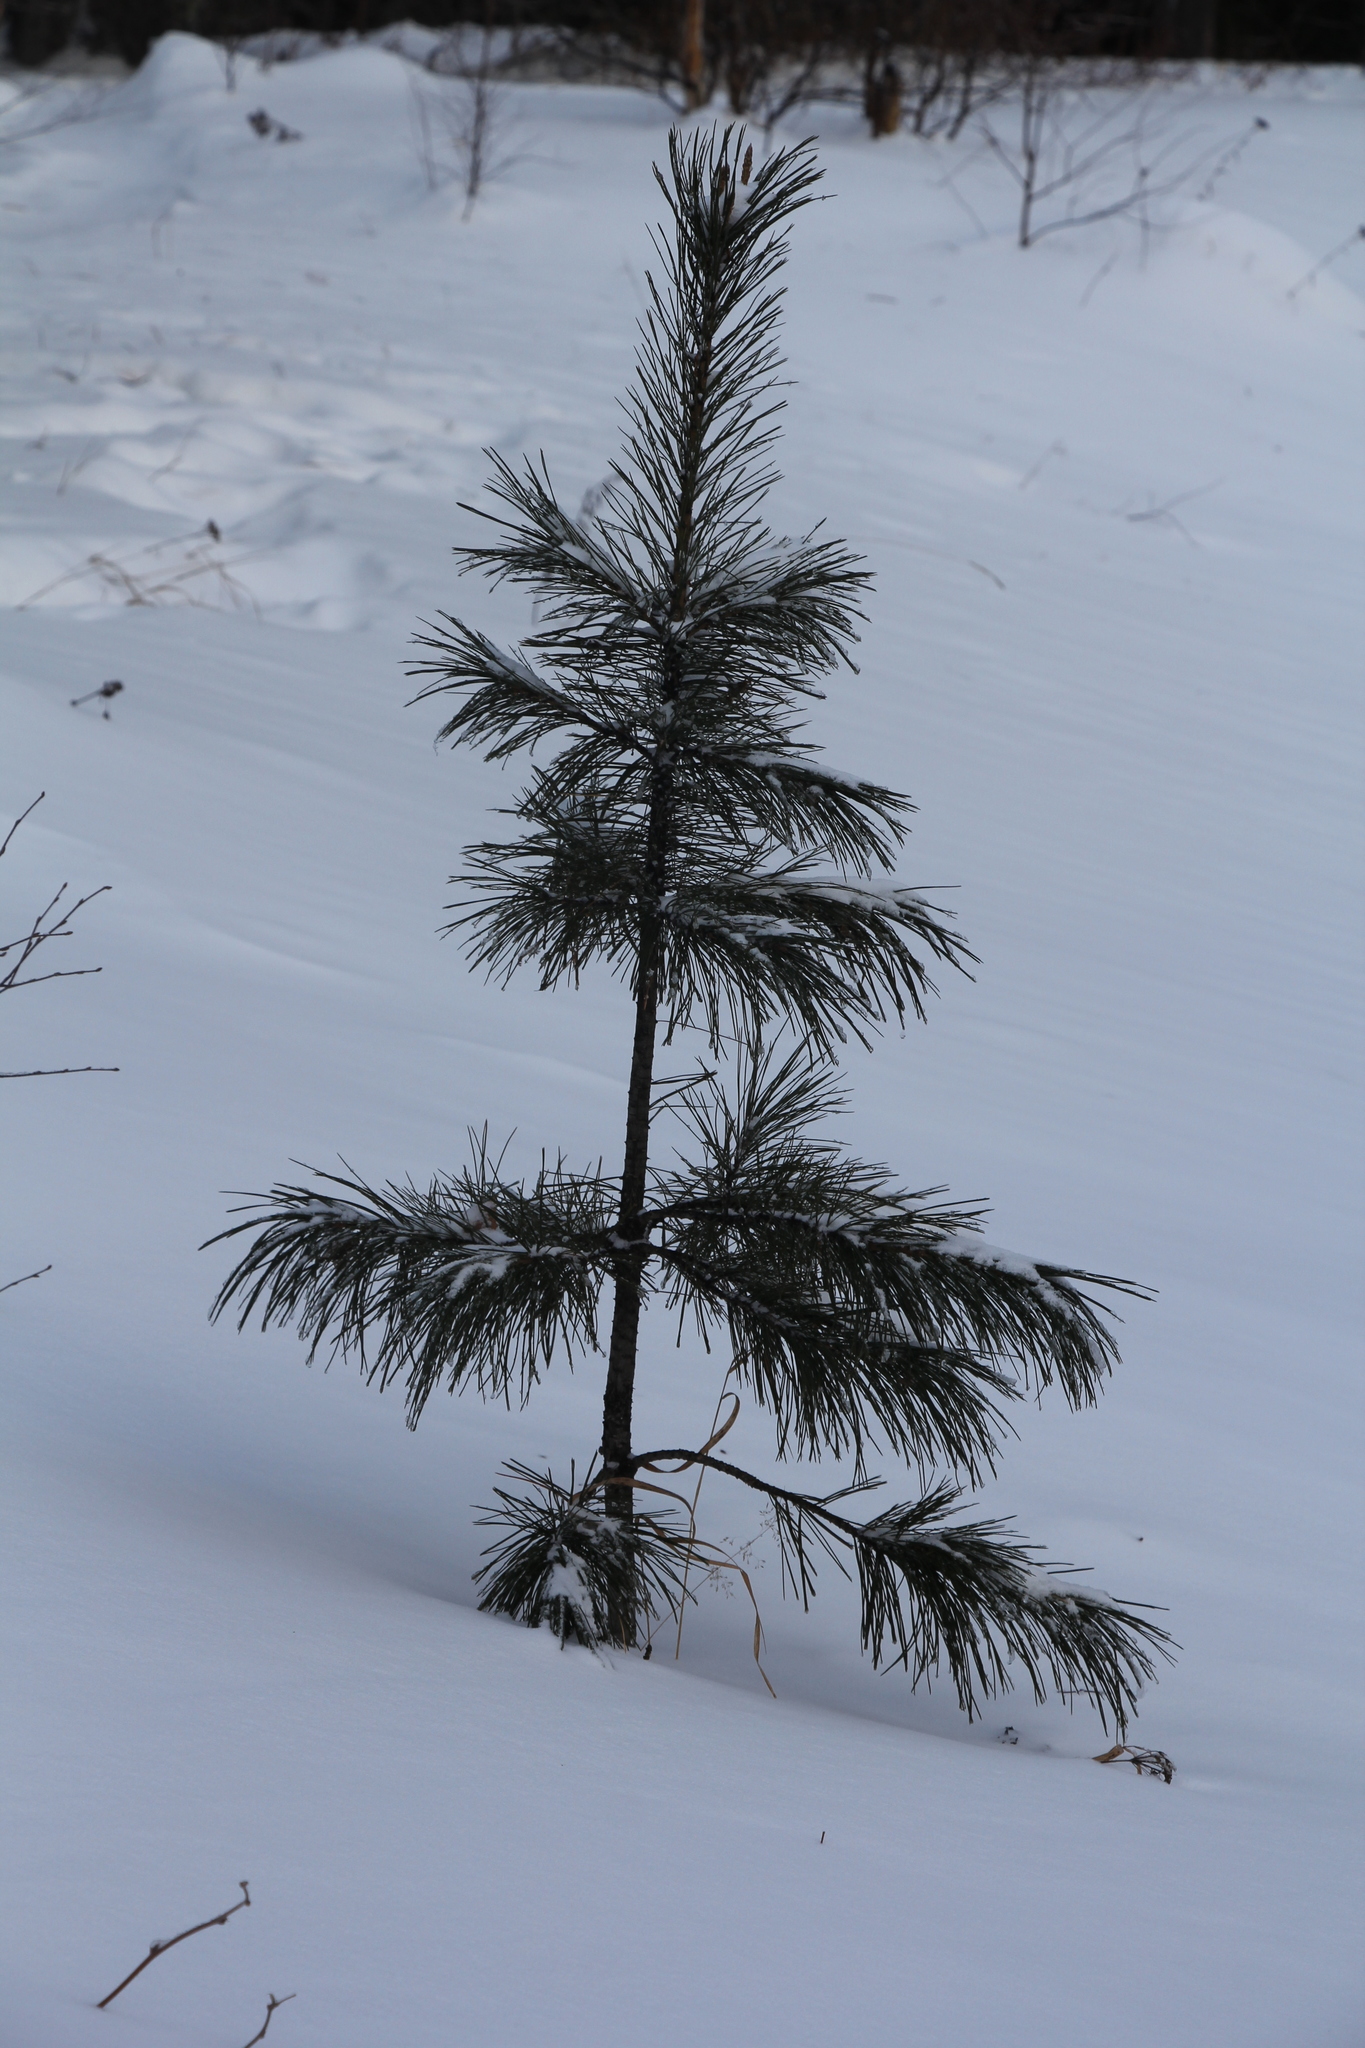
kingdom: Plantae
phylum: Tracheophyta
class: Pinopsida
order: Pinales
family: Pinaceae
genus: Pinus
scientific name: Pinus sibirica
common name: Siberian pine
